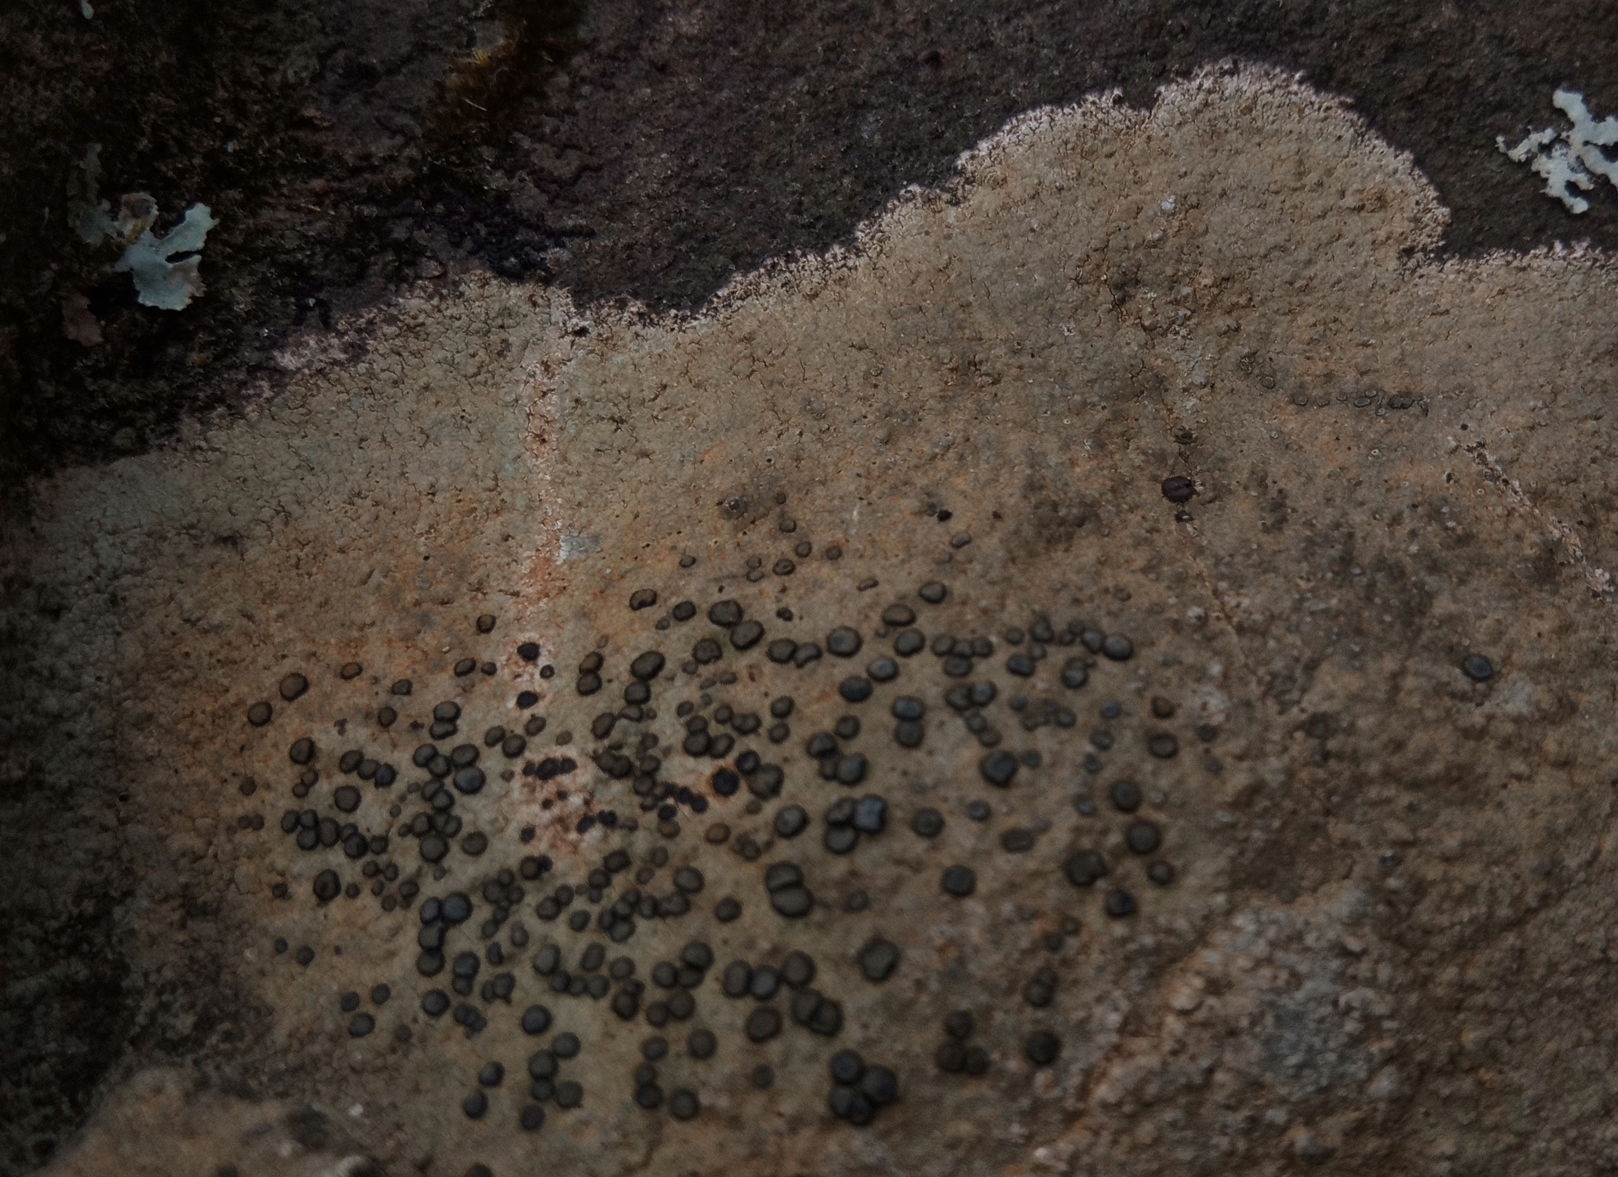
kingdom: Fungi
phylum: Ascomycota
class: Lecanoromycetes
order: Lecideales
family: Lecideaceae
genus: Porpidia
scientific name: Porpidia albocaerulescens
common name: Smokey-eyed boulder lichen
